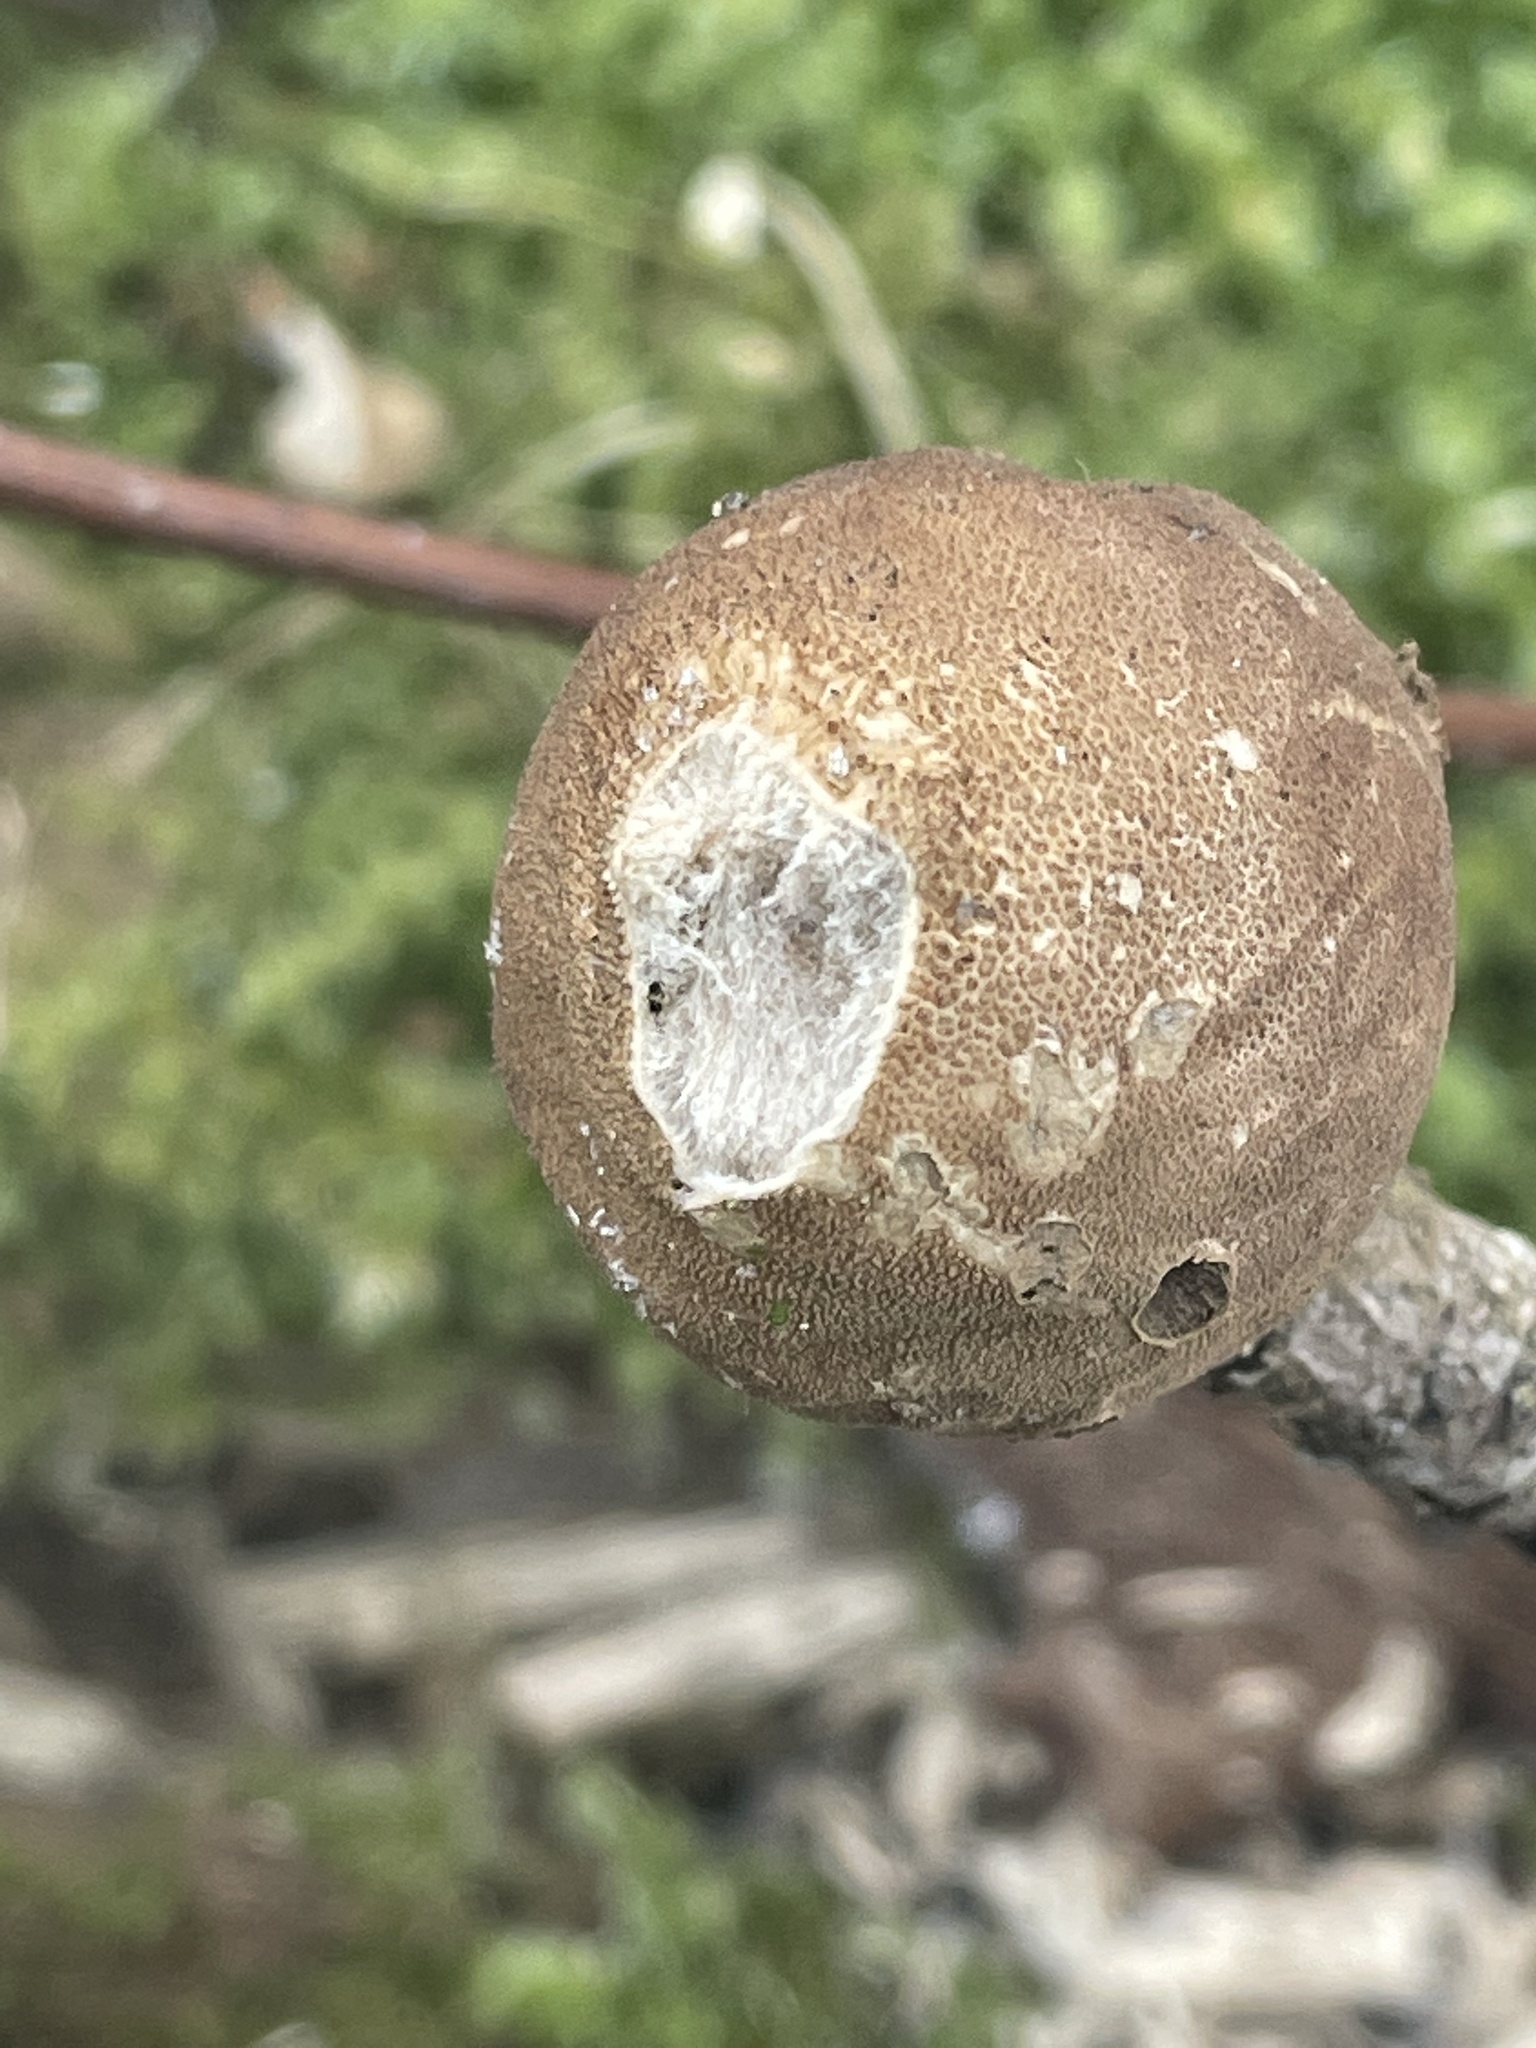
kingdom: Fungi
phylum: Basidiomycota
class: Agaricomycetes
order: Agaricales
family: Lycoperdaceae
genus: Apioperdon
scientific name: Apioperdon pyriforme
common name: Pear-shaped puffball
